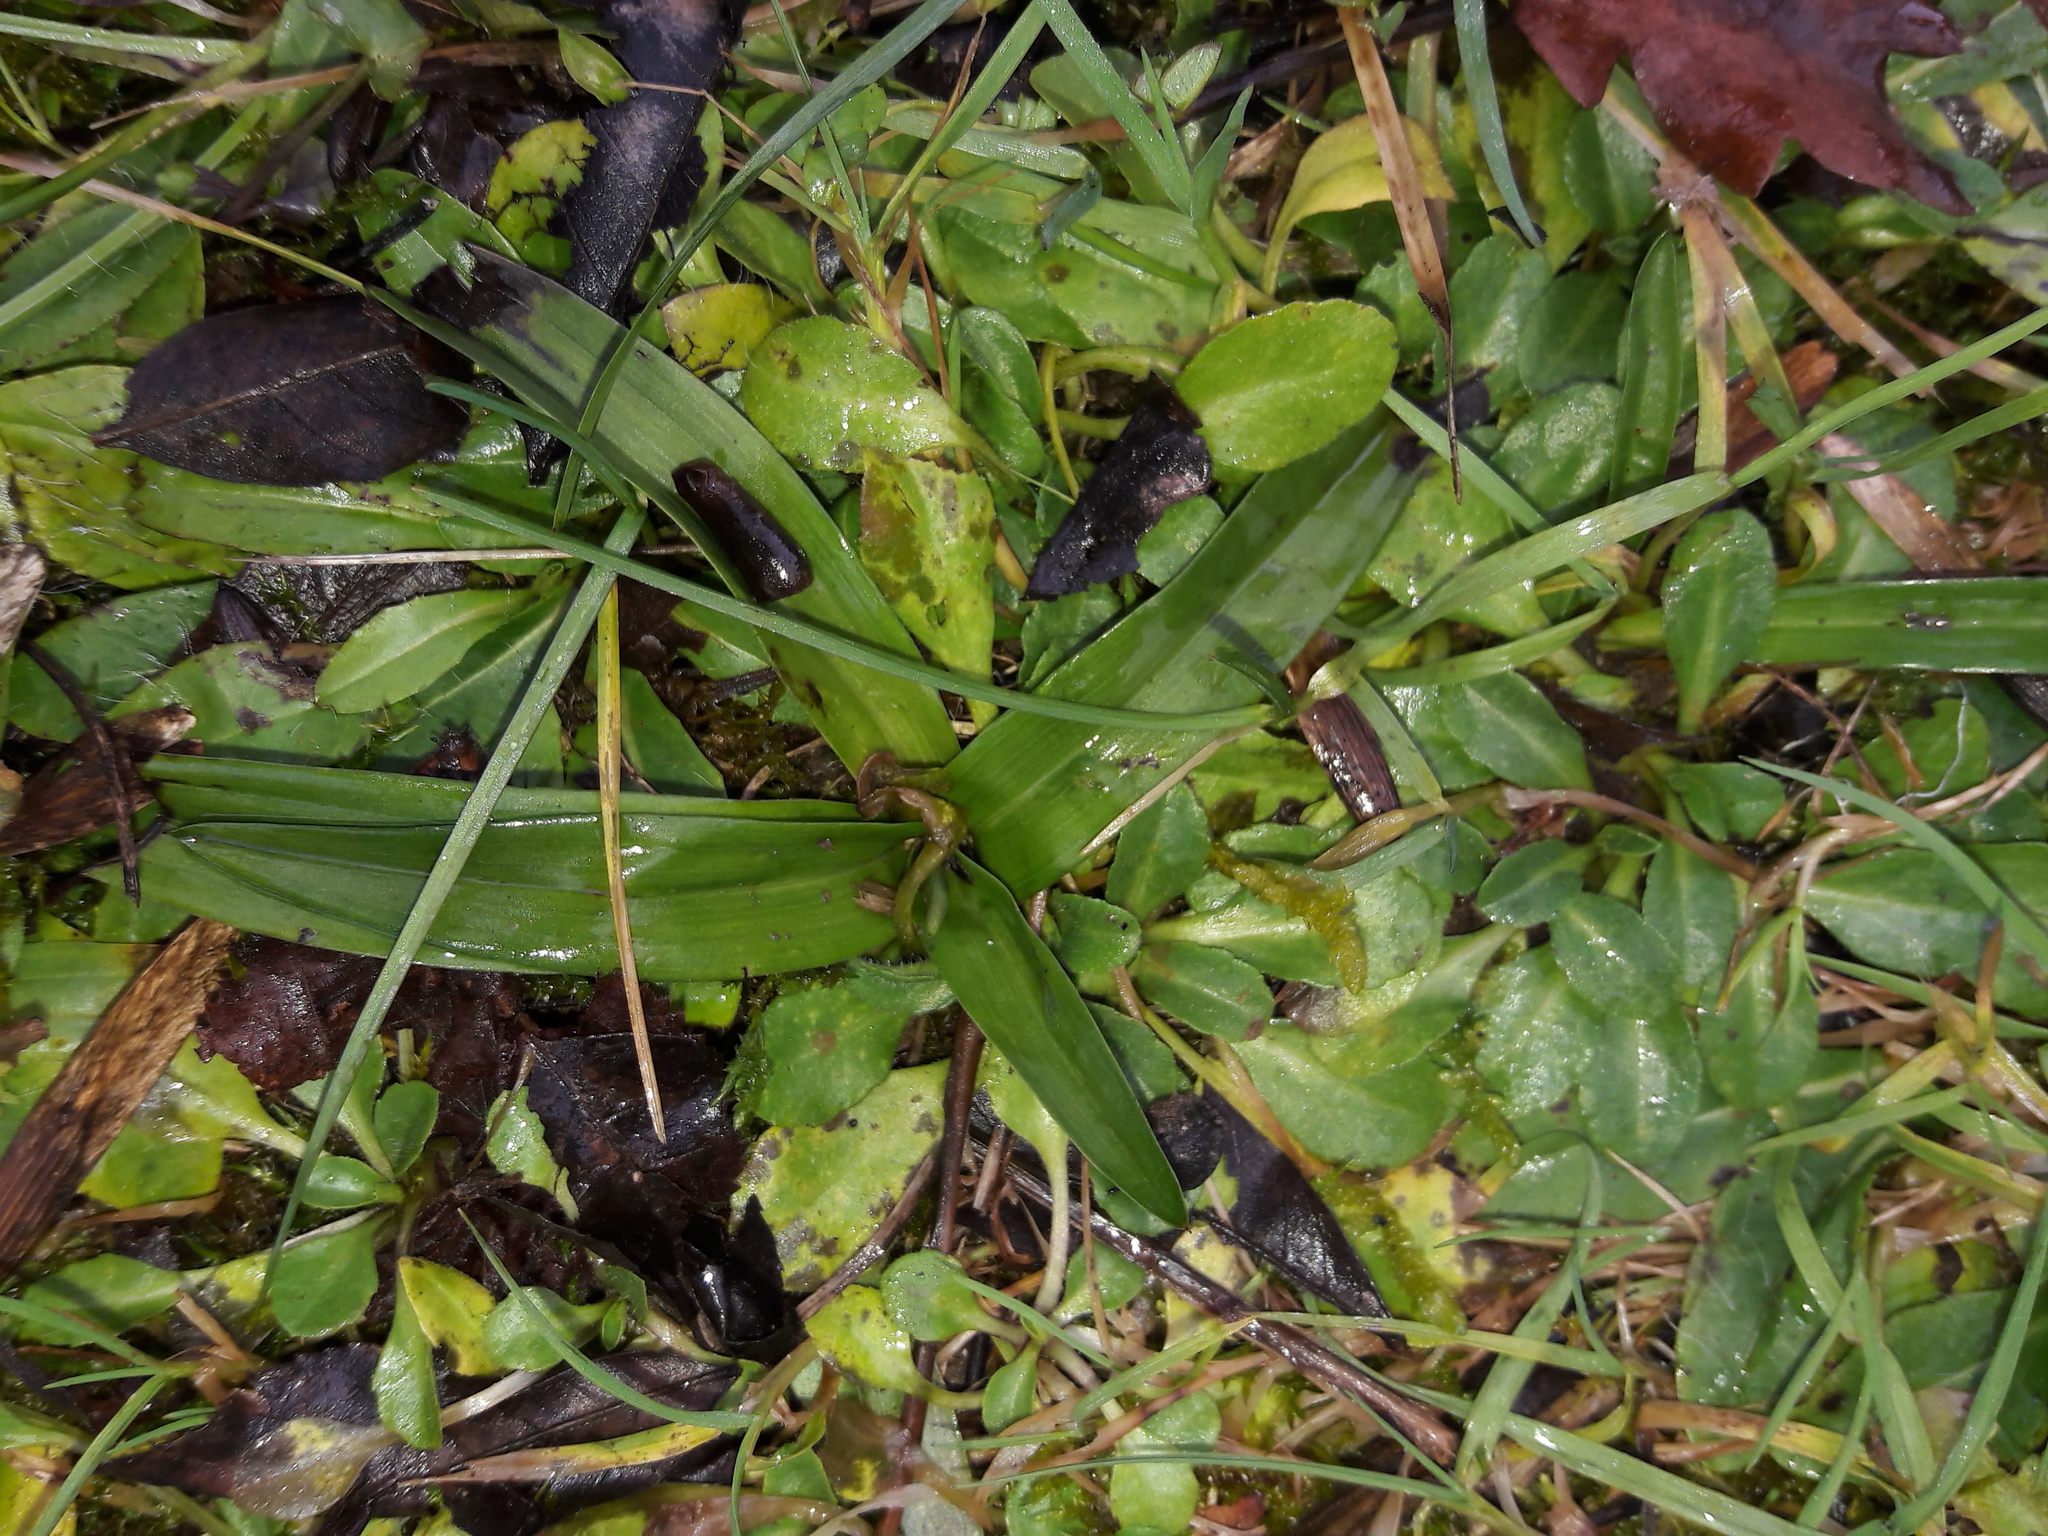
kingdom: Plantae
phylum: Tracheophyta
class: Liliopsida
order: Asparagales
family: Orchidaceae
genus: Anacamptis
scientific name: Anacamptis pyramidalis
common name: Pyramidal orchid
